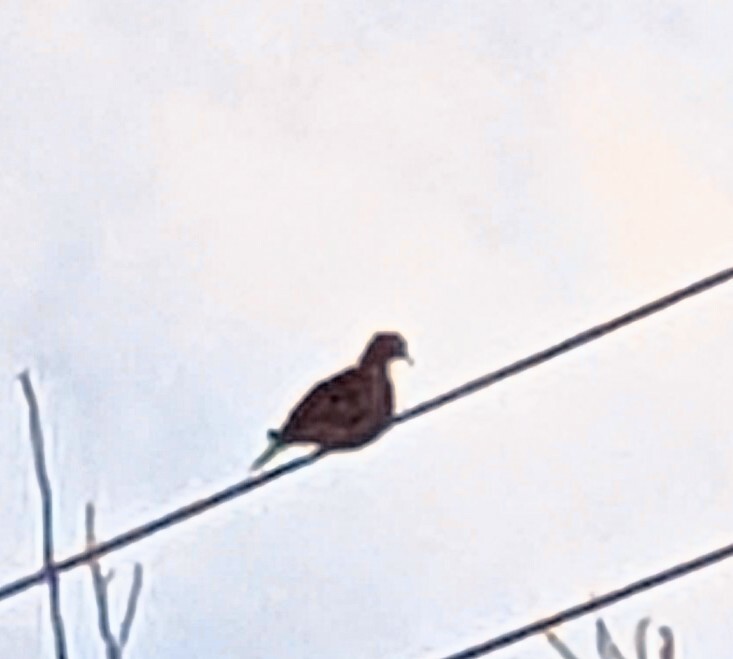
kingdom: Animalia
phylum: Chordata
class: Aves
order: Columbiformes
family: Columbidae
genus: Zenaida
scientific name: Zenaida macroura
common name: Mourning dove
